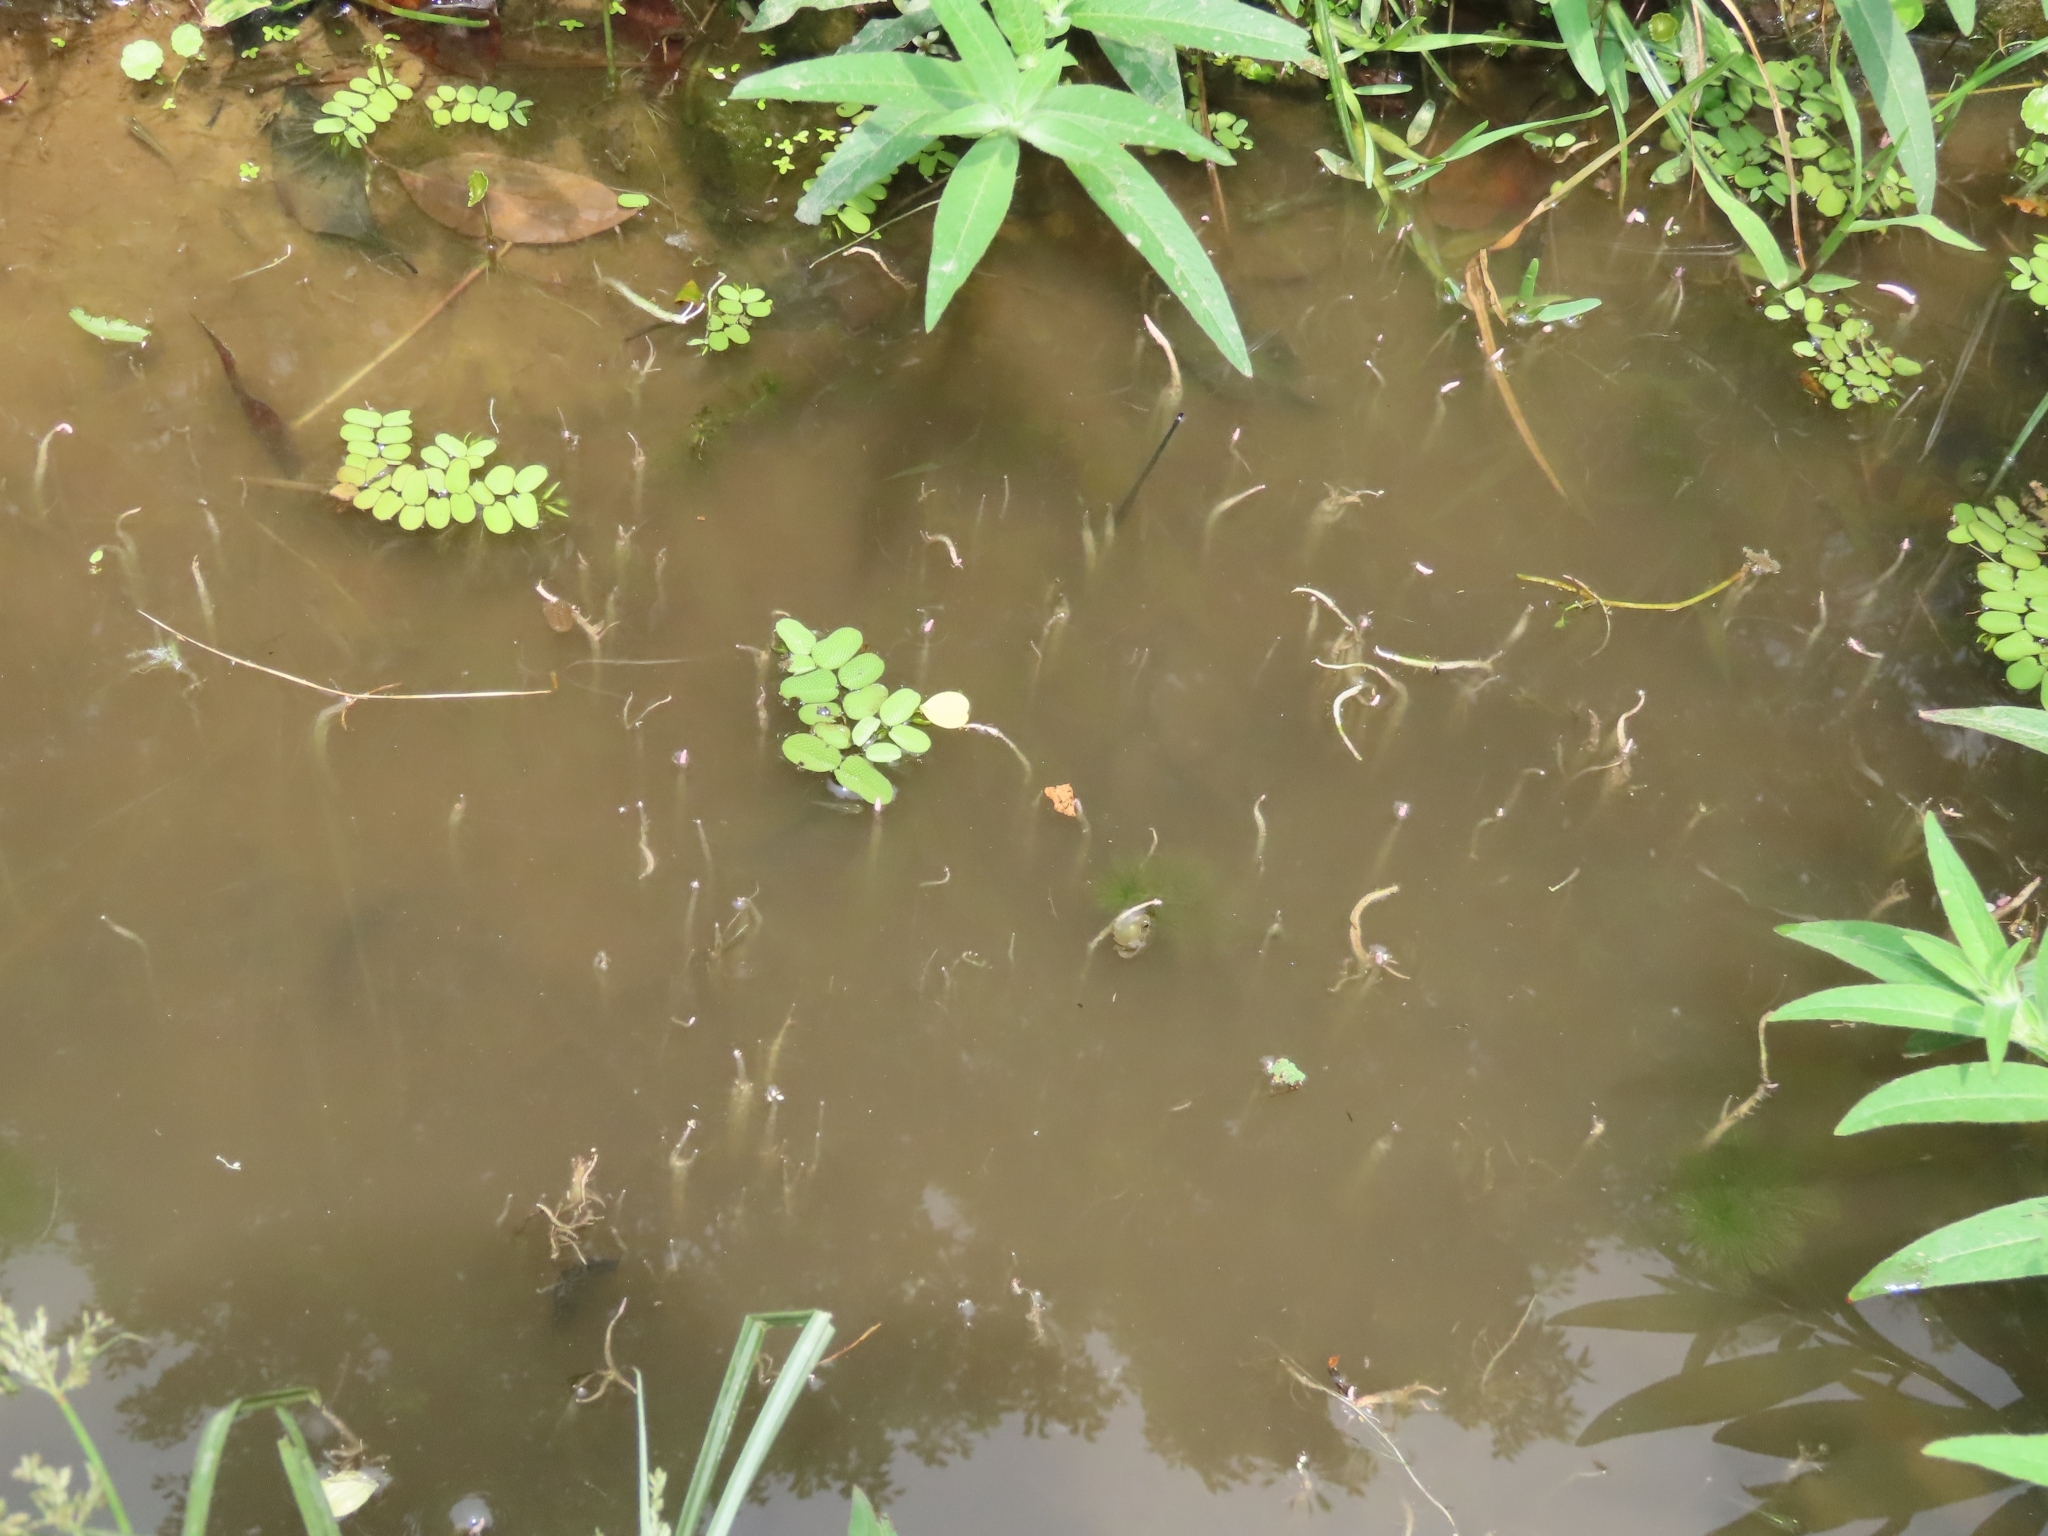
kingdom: Plantae
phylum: Tracheophyta
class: Magnoliopsida
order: Myrtales
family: Onagraceae
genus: Ludwigia
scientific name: Ludwigia octovalvis
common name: Water-primrose
